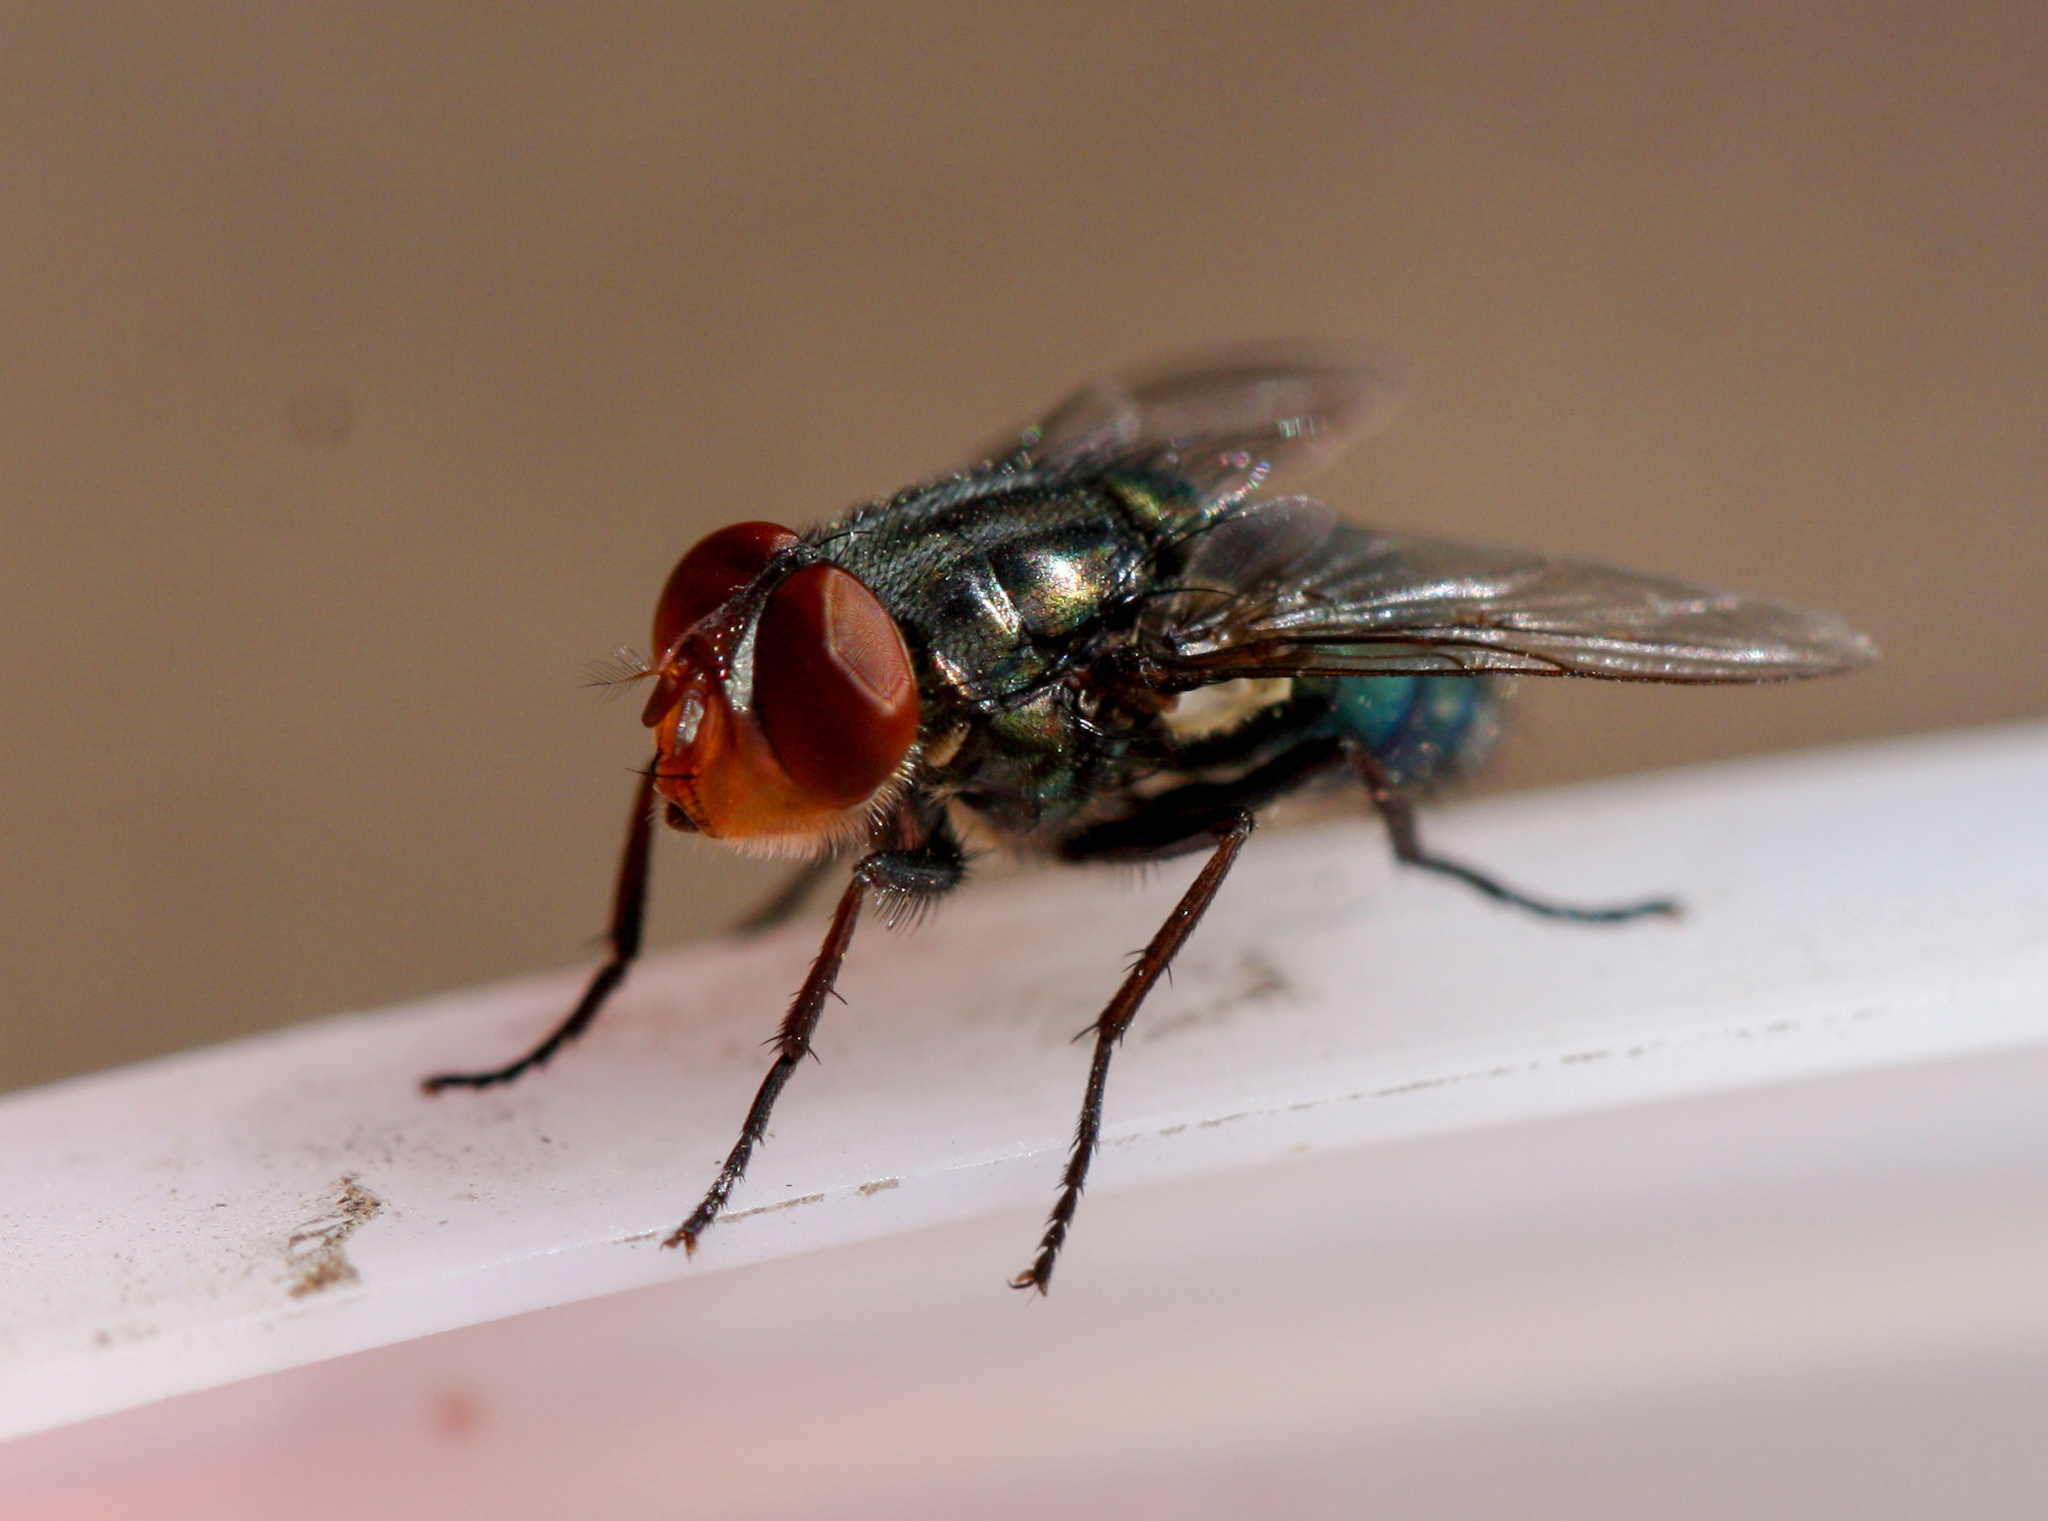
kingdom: Animalia
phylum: Arthropoda
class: Insecta
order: Diptera
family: Calliphoridae
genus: Cochliomyia
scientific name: Cochliomyia macellaria
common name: Secondary screwworm
